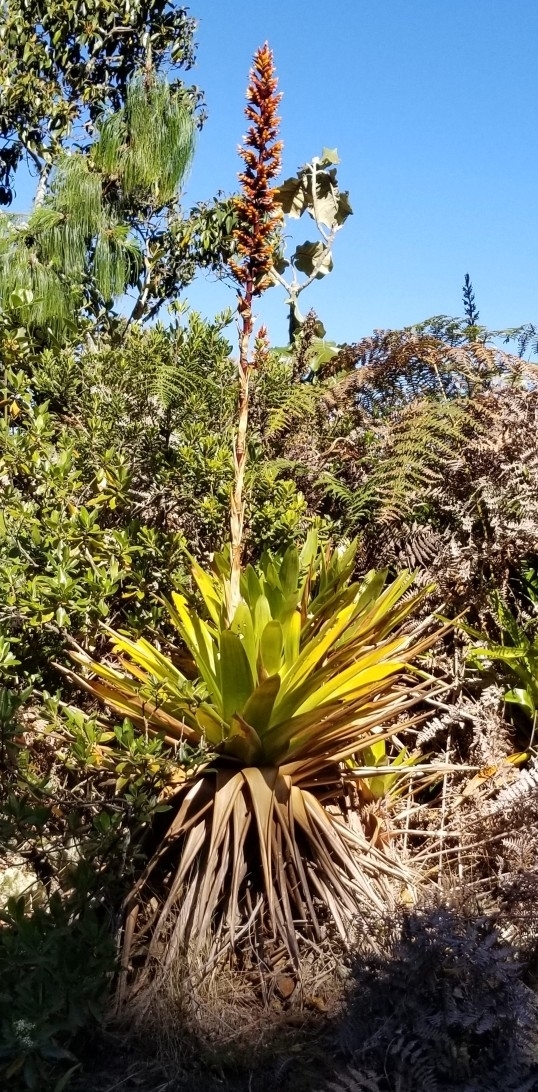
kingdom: Plantae
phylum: Tracheophyta
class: Liliopsida
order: Poales
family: Bromeliaceae
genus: Cipuropsis
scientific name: Cipuropsis hospitalis
